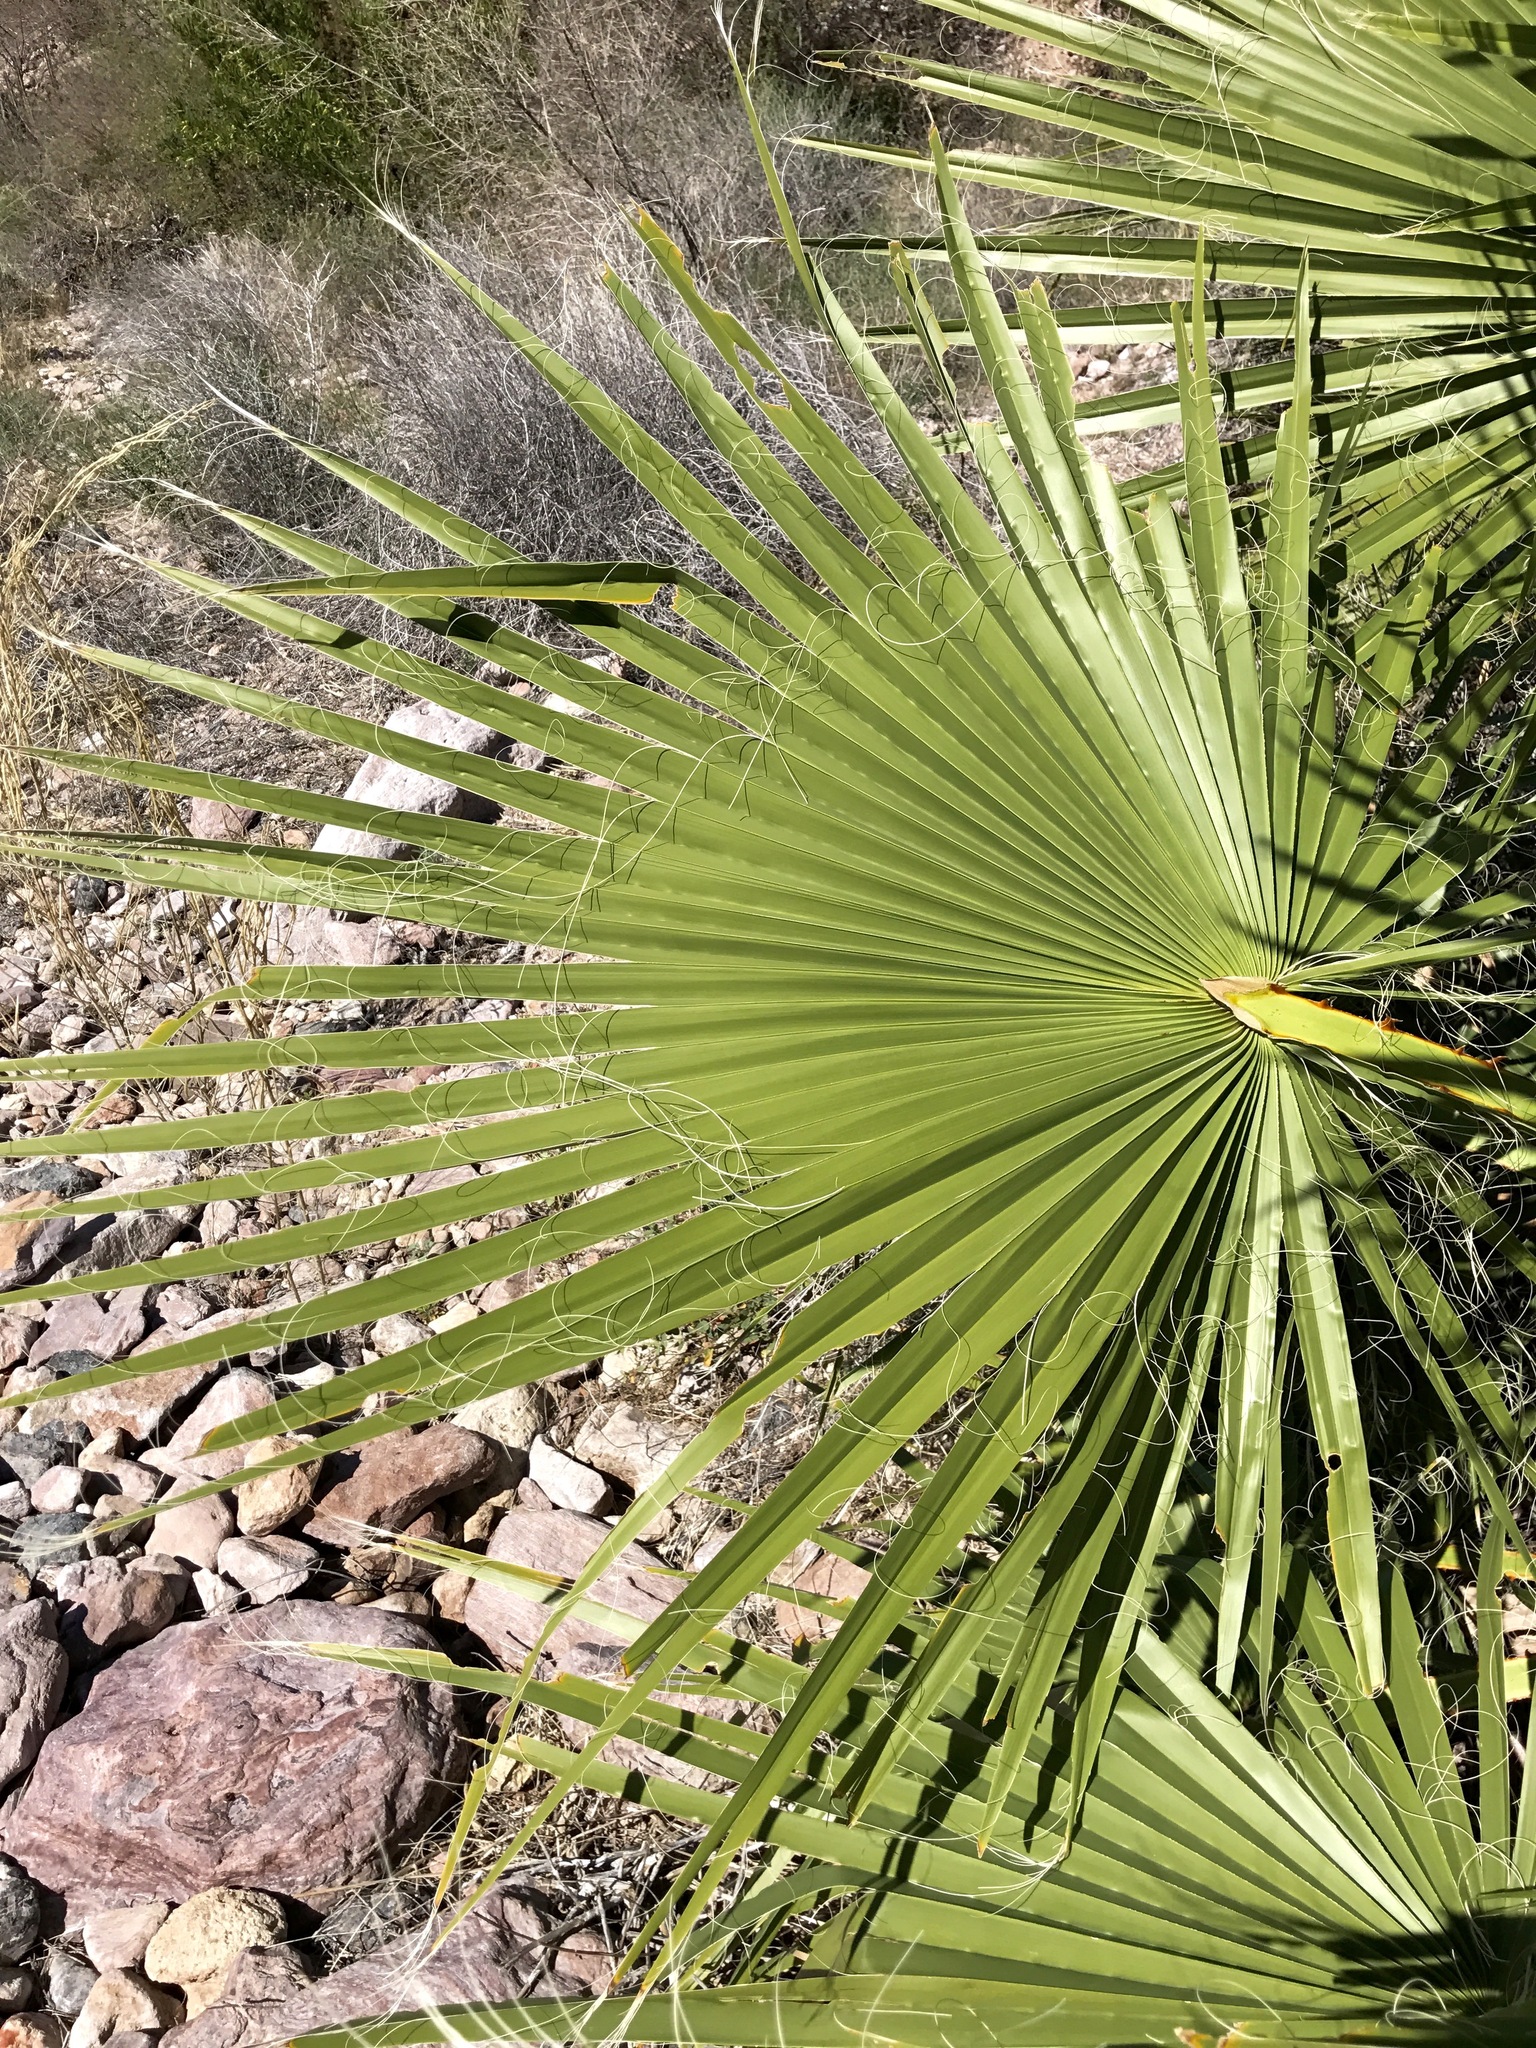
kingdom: Plantae
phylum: Tracheophyta
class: Liliopsida
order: Arecales
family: Arecaceae
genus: Washingtonia
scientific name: Washingtonia robusta
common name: Mexican fan palm
